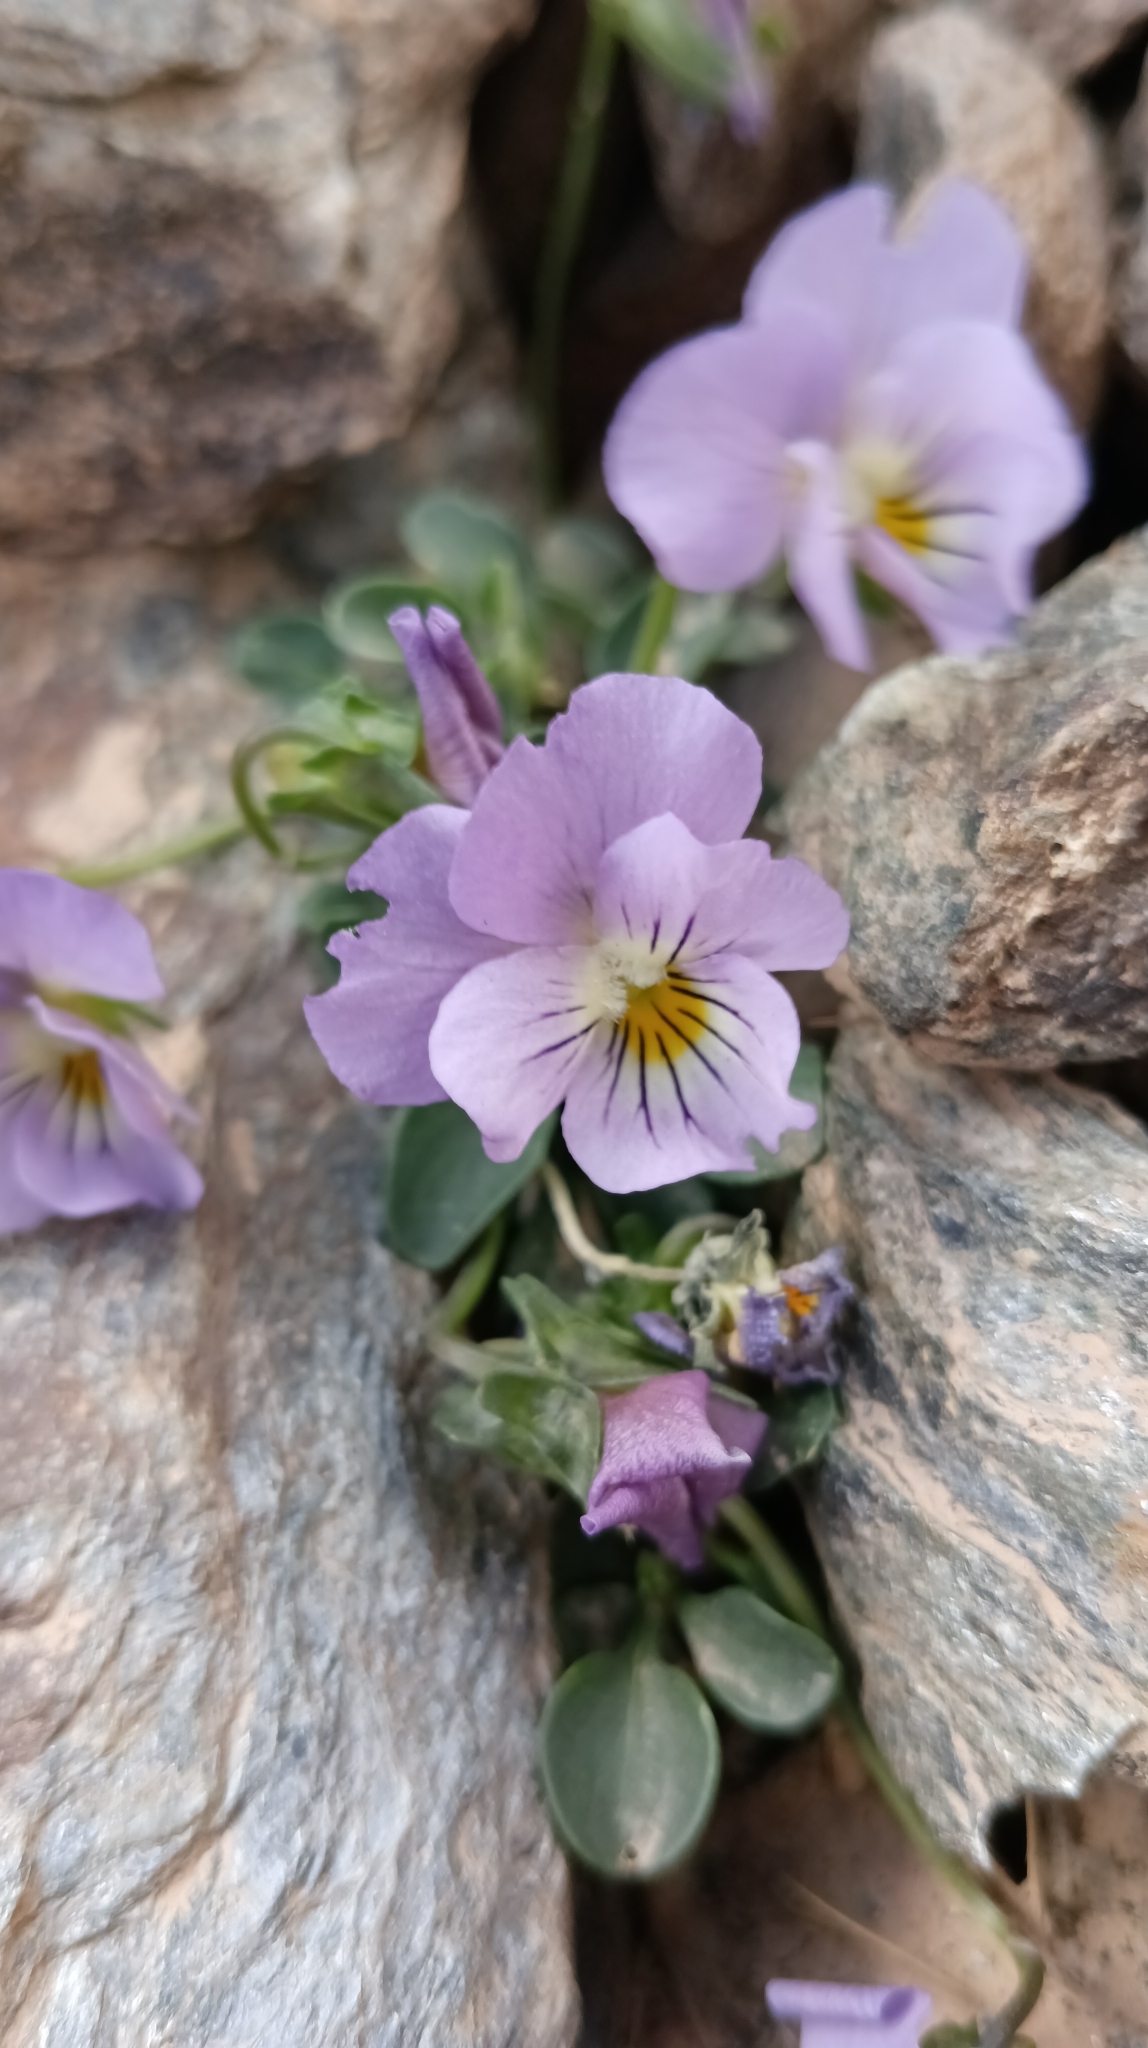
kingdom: Plantae
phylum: Tracheophyta
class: Magnoliopsida
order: Malpighiales
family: Violaceae
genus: Viola
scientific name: Viola crassiuscula
